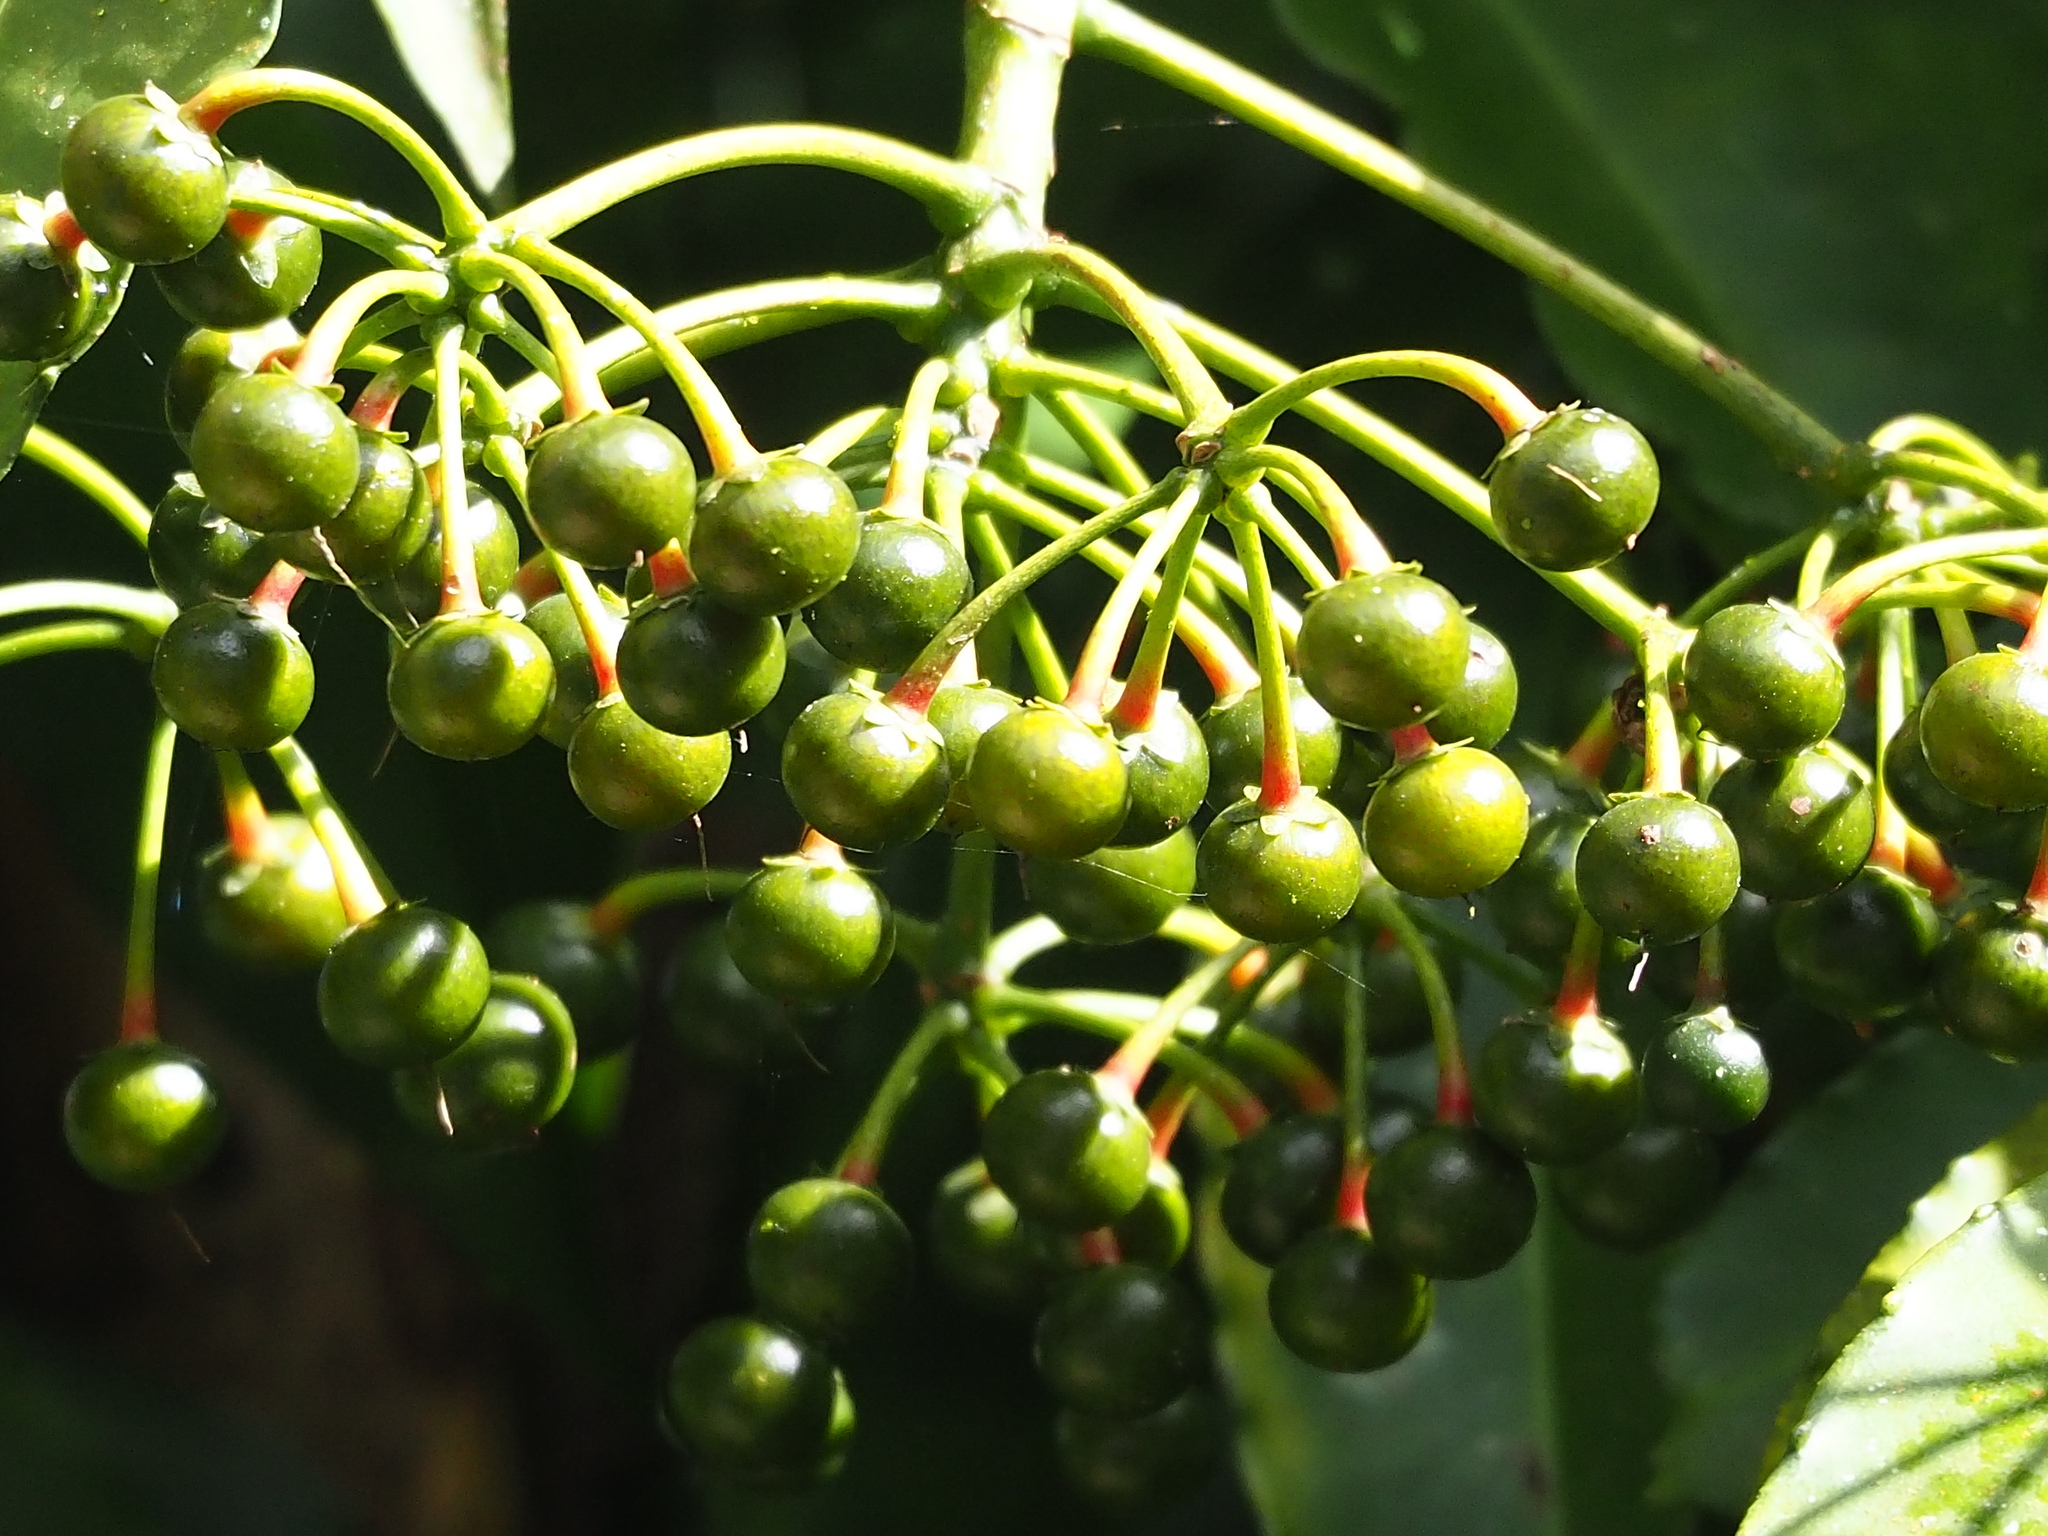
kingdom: Plantae
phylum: Tracheophyta
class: Magnoliopsida
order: Ericales
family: Primulaceae
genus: Ardisia
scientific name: Ardisia polysticta
